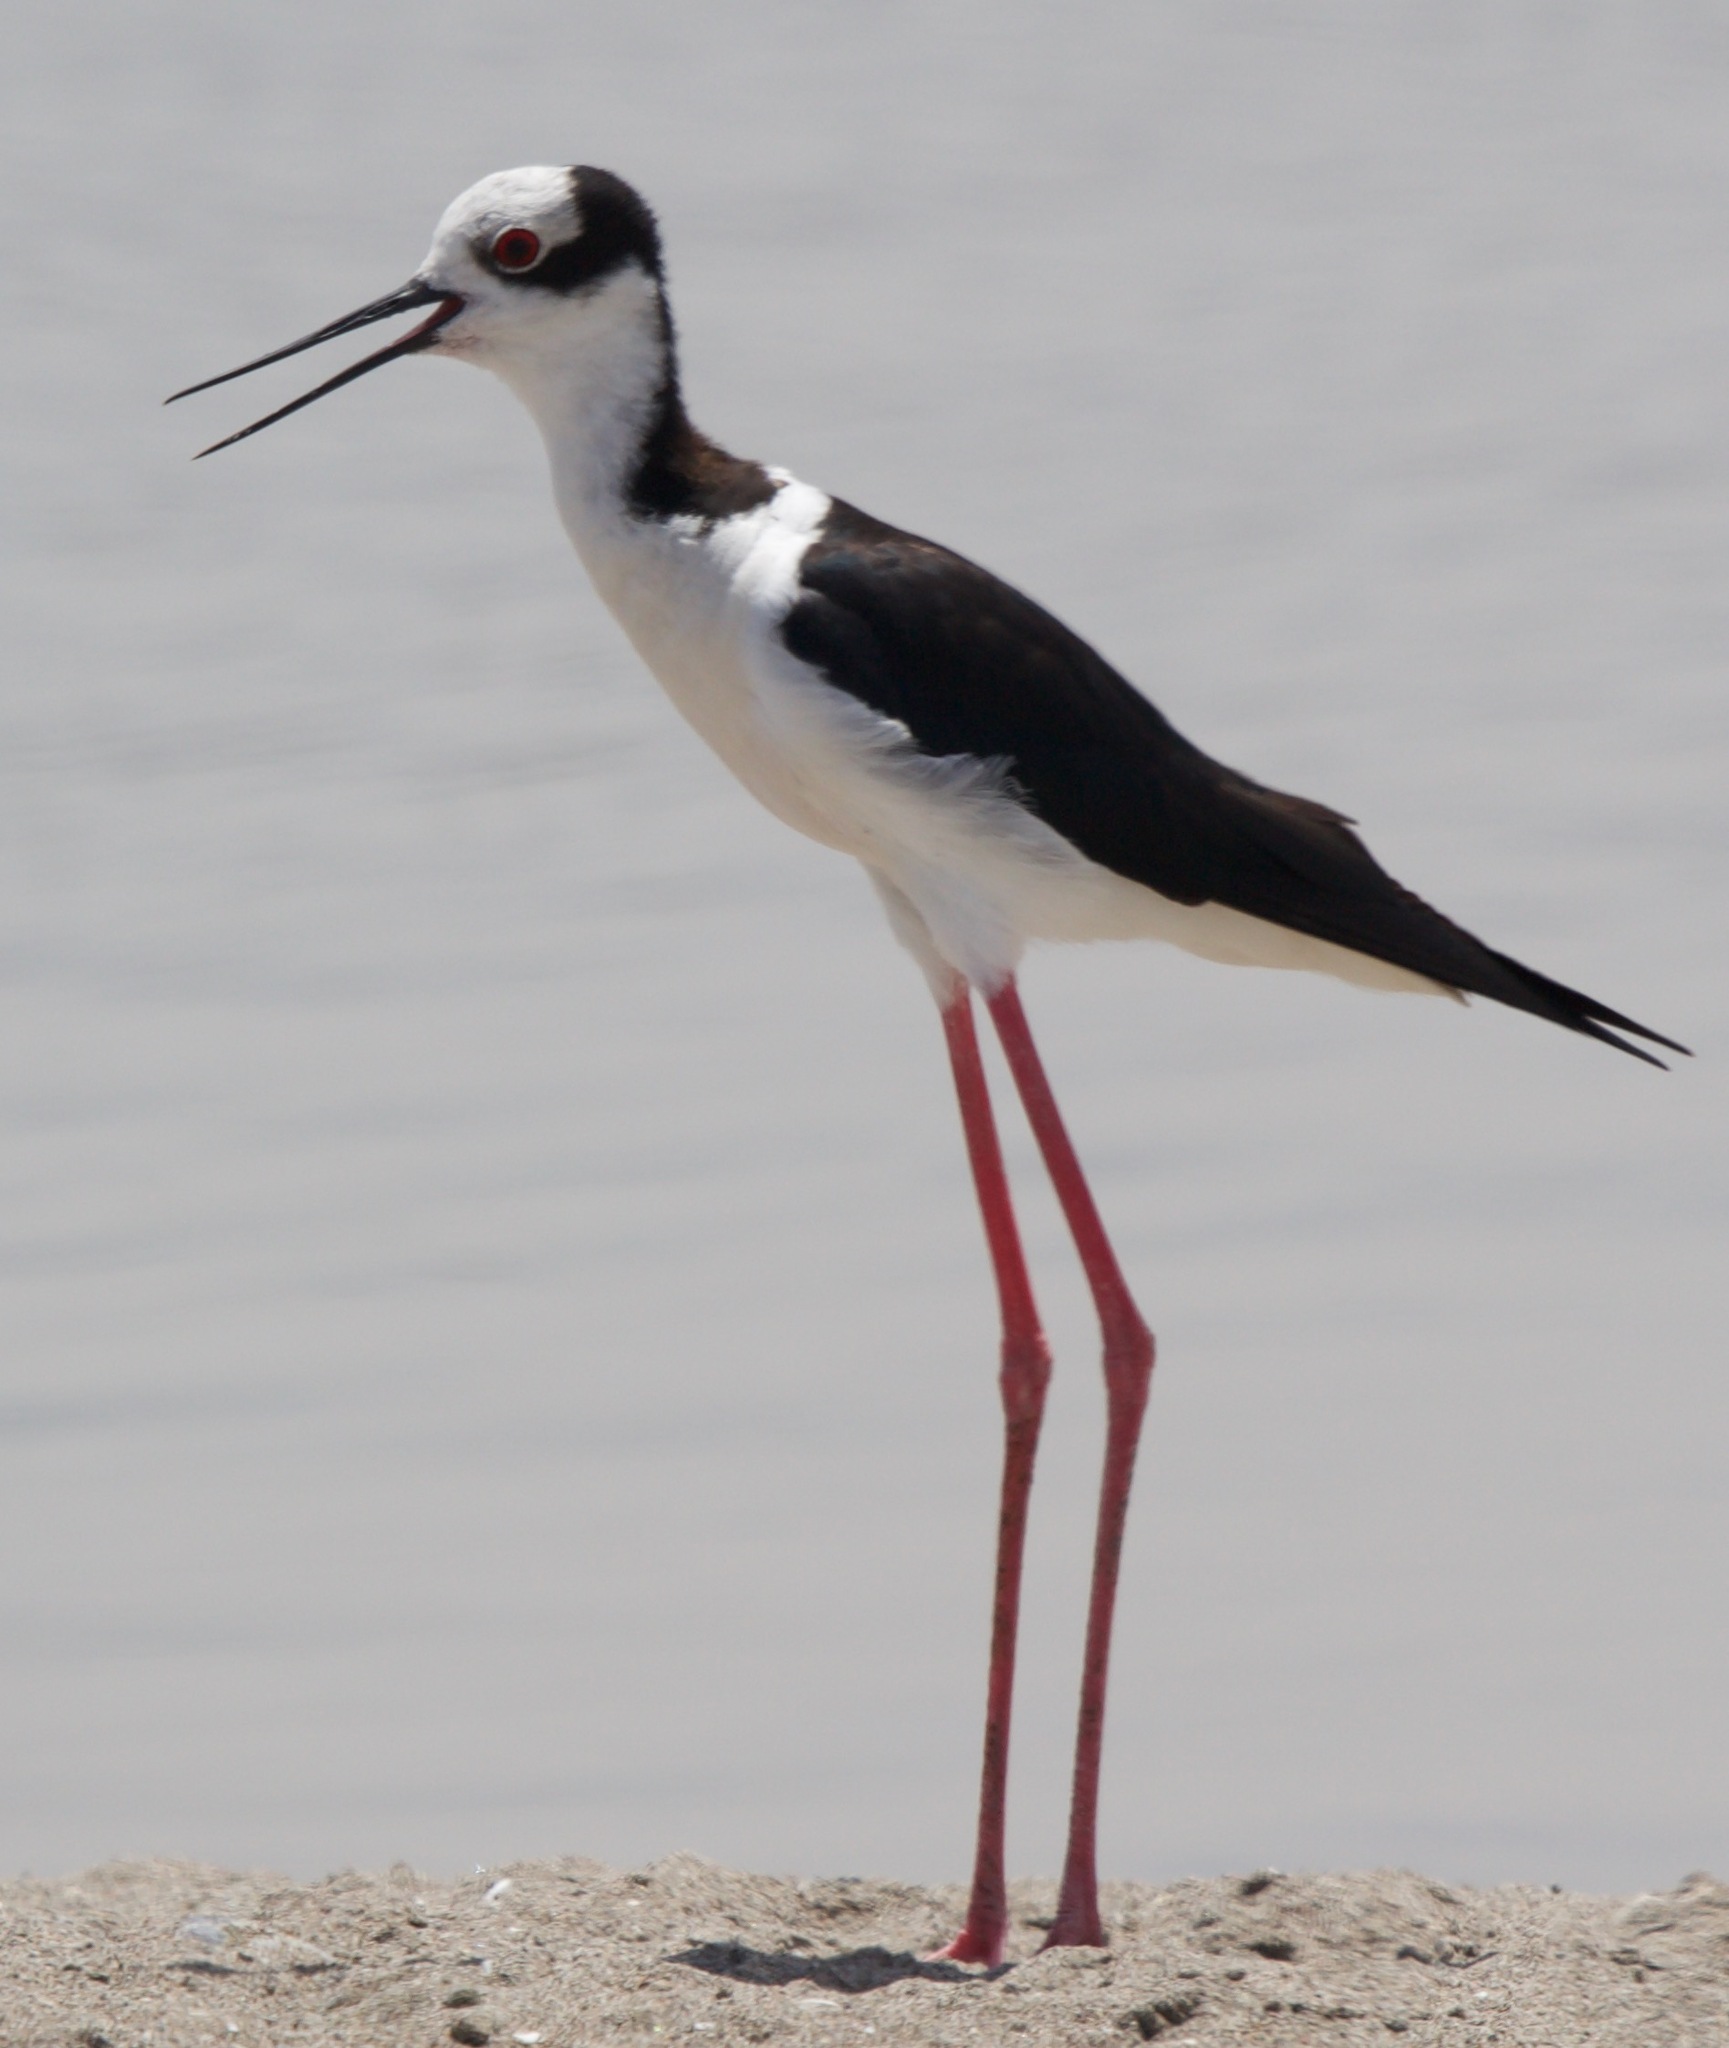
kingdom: Animalia
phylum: Chordata
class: Aves
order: Charadriiformes
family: Recurvirostridae
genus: Himantopus
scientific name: Himantopus mexicanus
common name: Black-necked stilt
